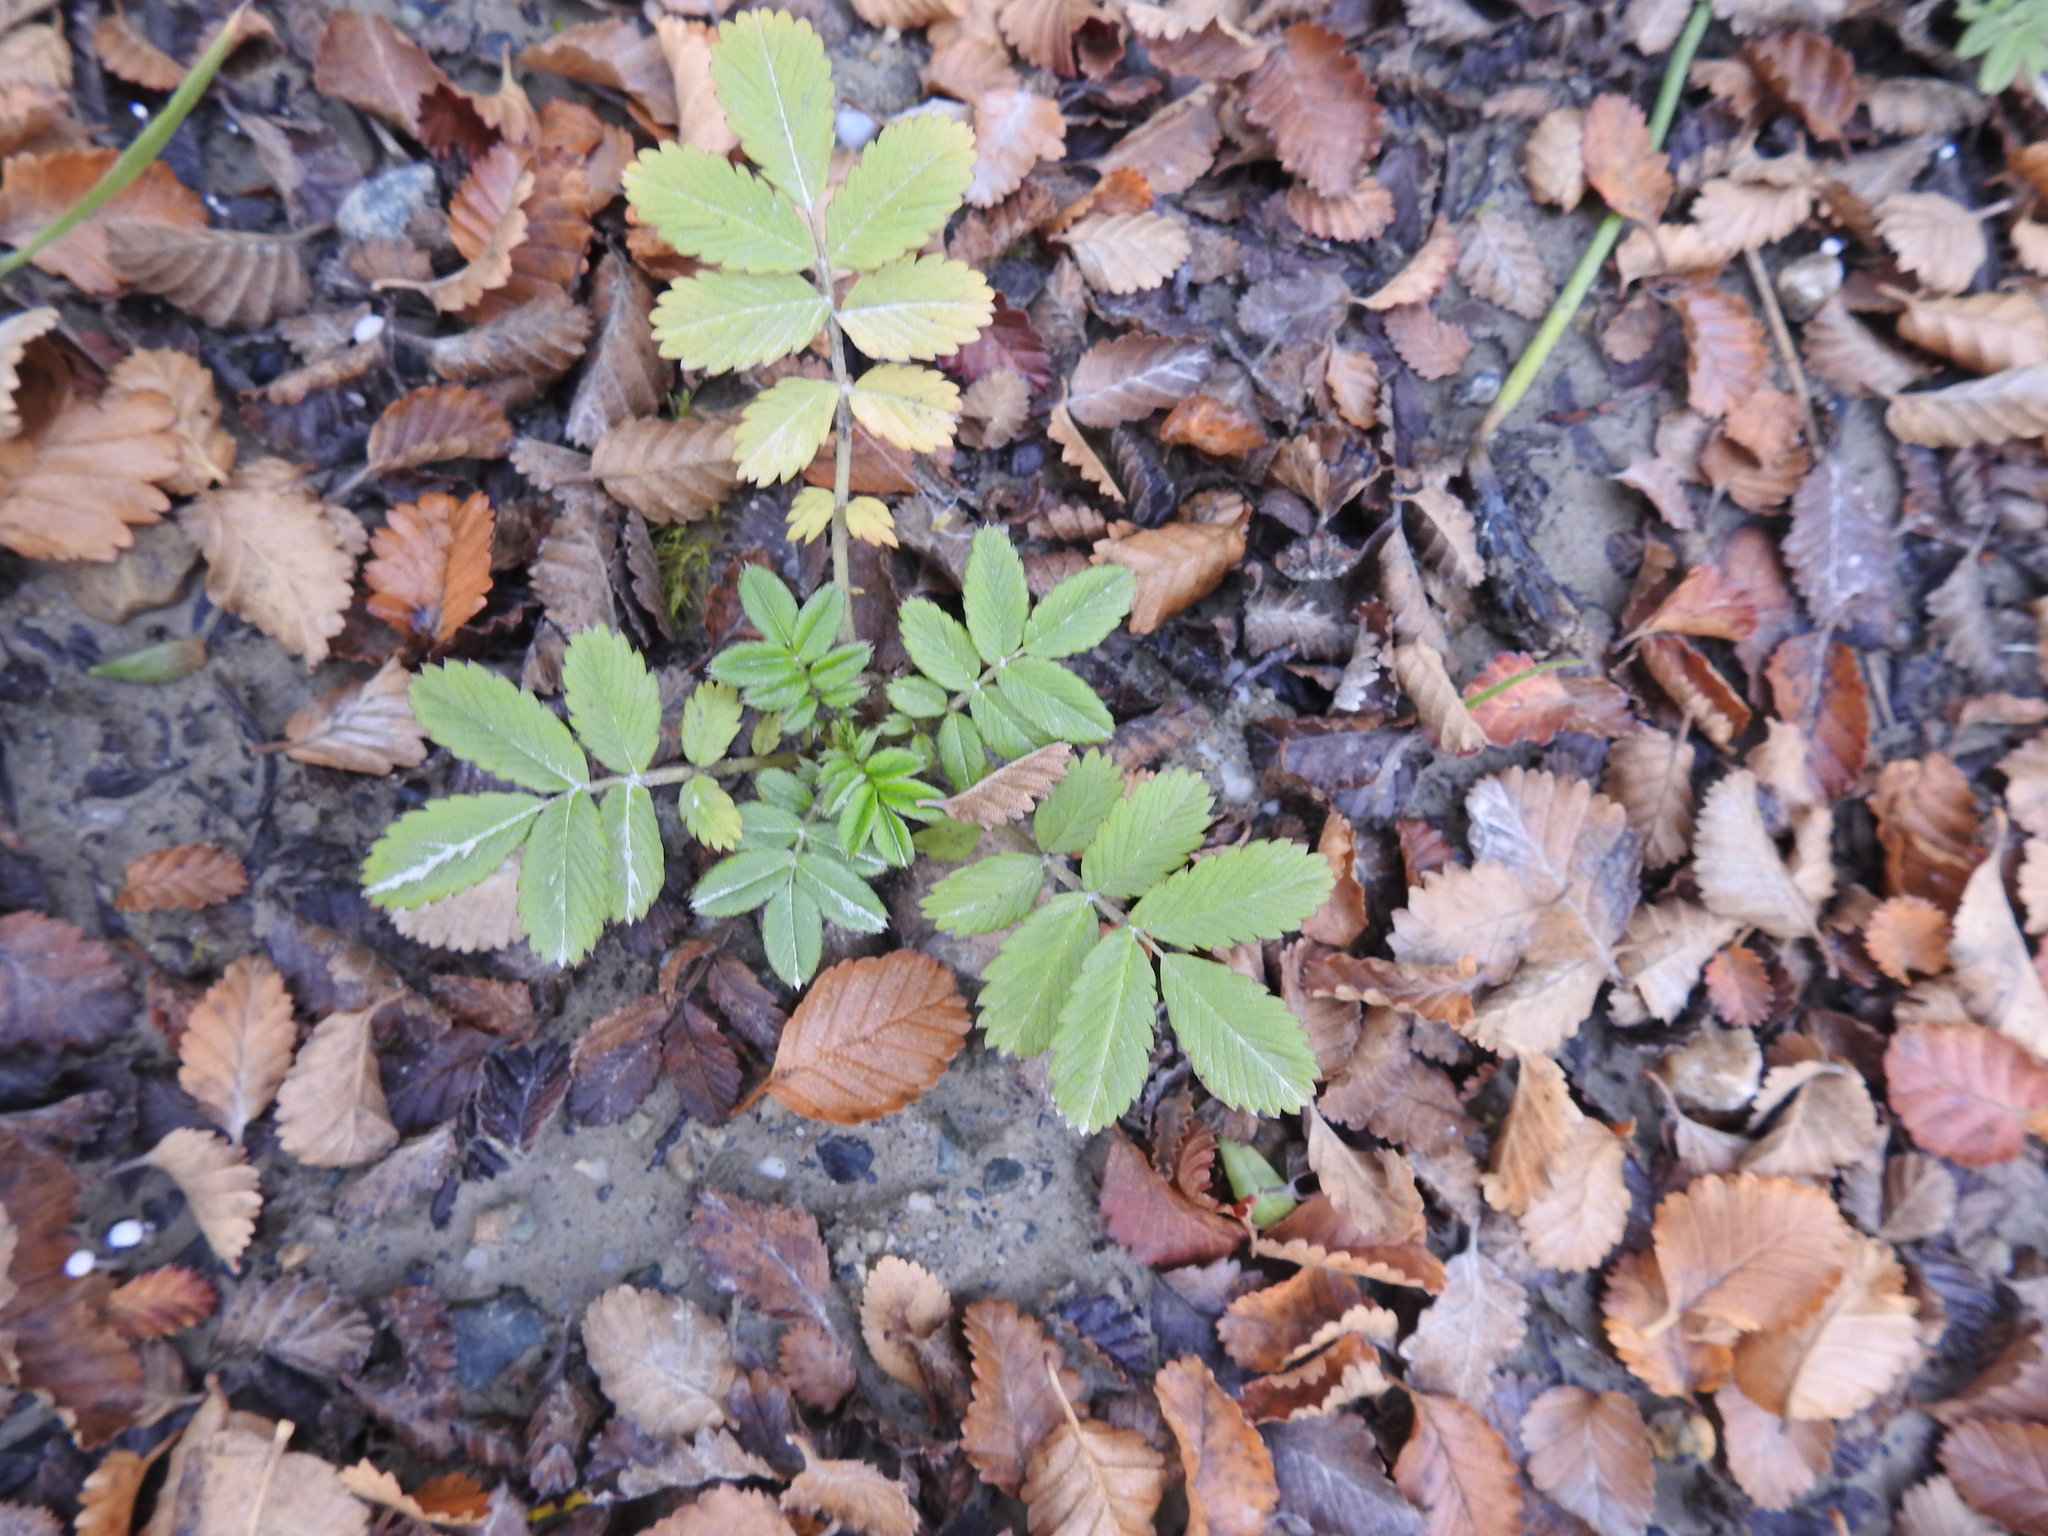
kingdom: Plantae
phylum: Tracheophyta
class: Magnoliopsida
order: Rosales
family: Rosaceae
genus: Acaena
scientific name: Acaena ovalifolia
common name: Two-spined acaena
